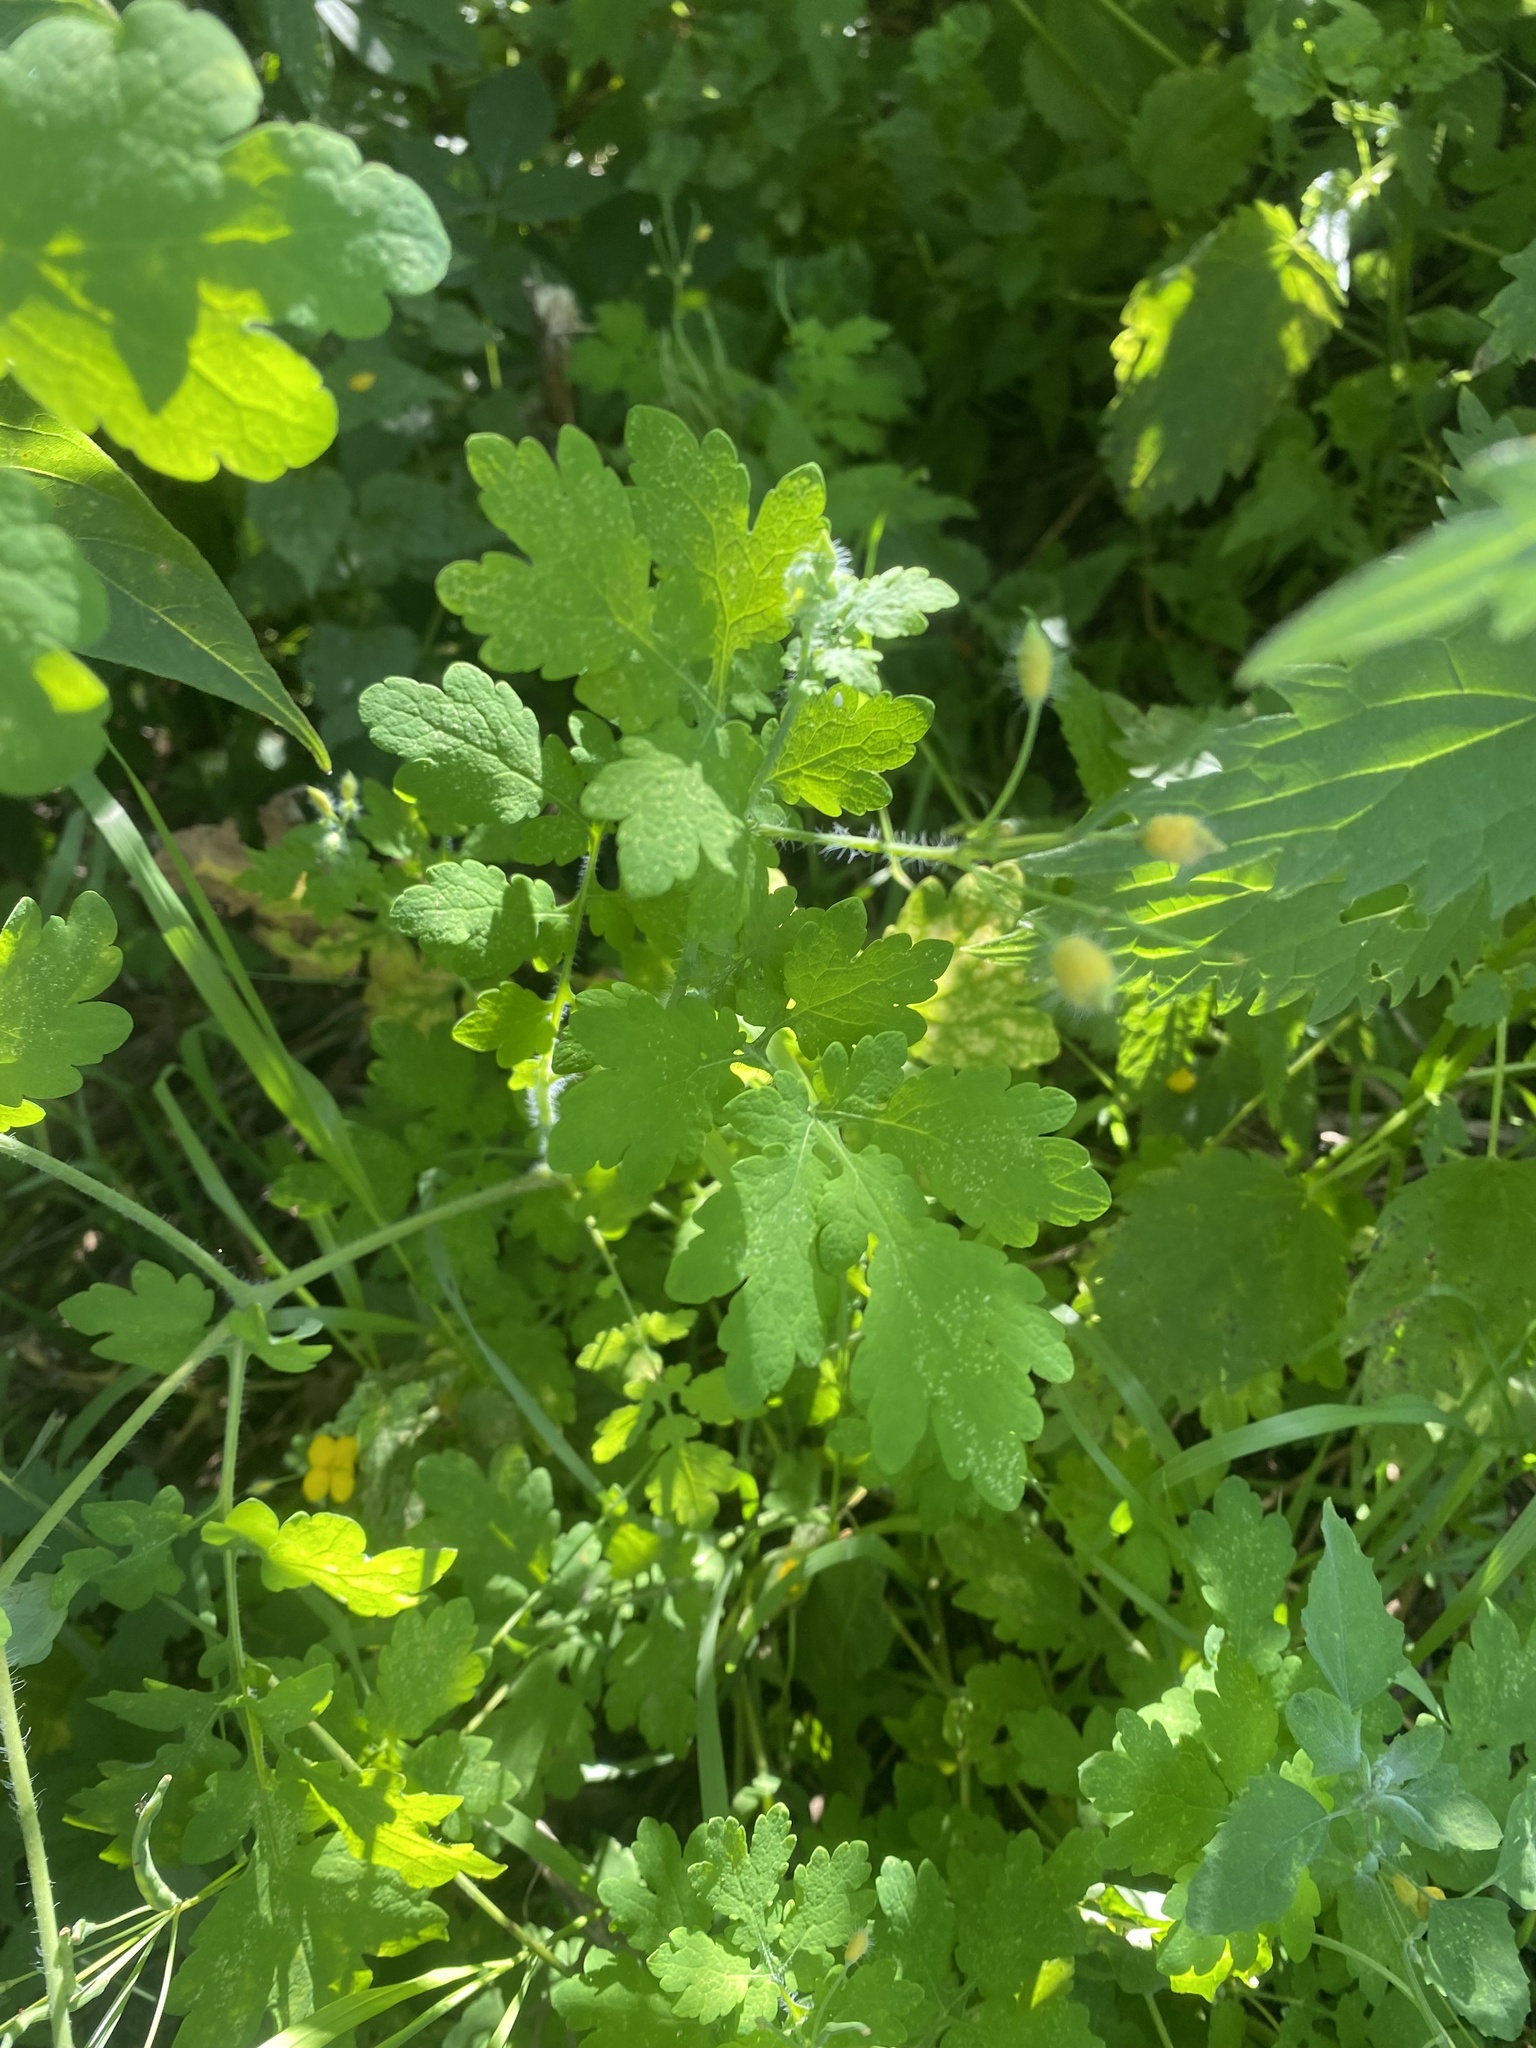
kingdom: Plantae
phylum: Tracheophyta
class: Magnoliopsida
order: Ranunculales
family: Papaveraceae
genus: Chelidonium
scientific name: Chelidonium majus
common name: Greater celandine
